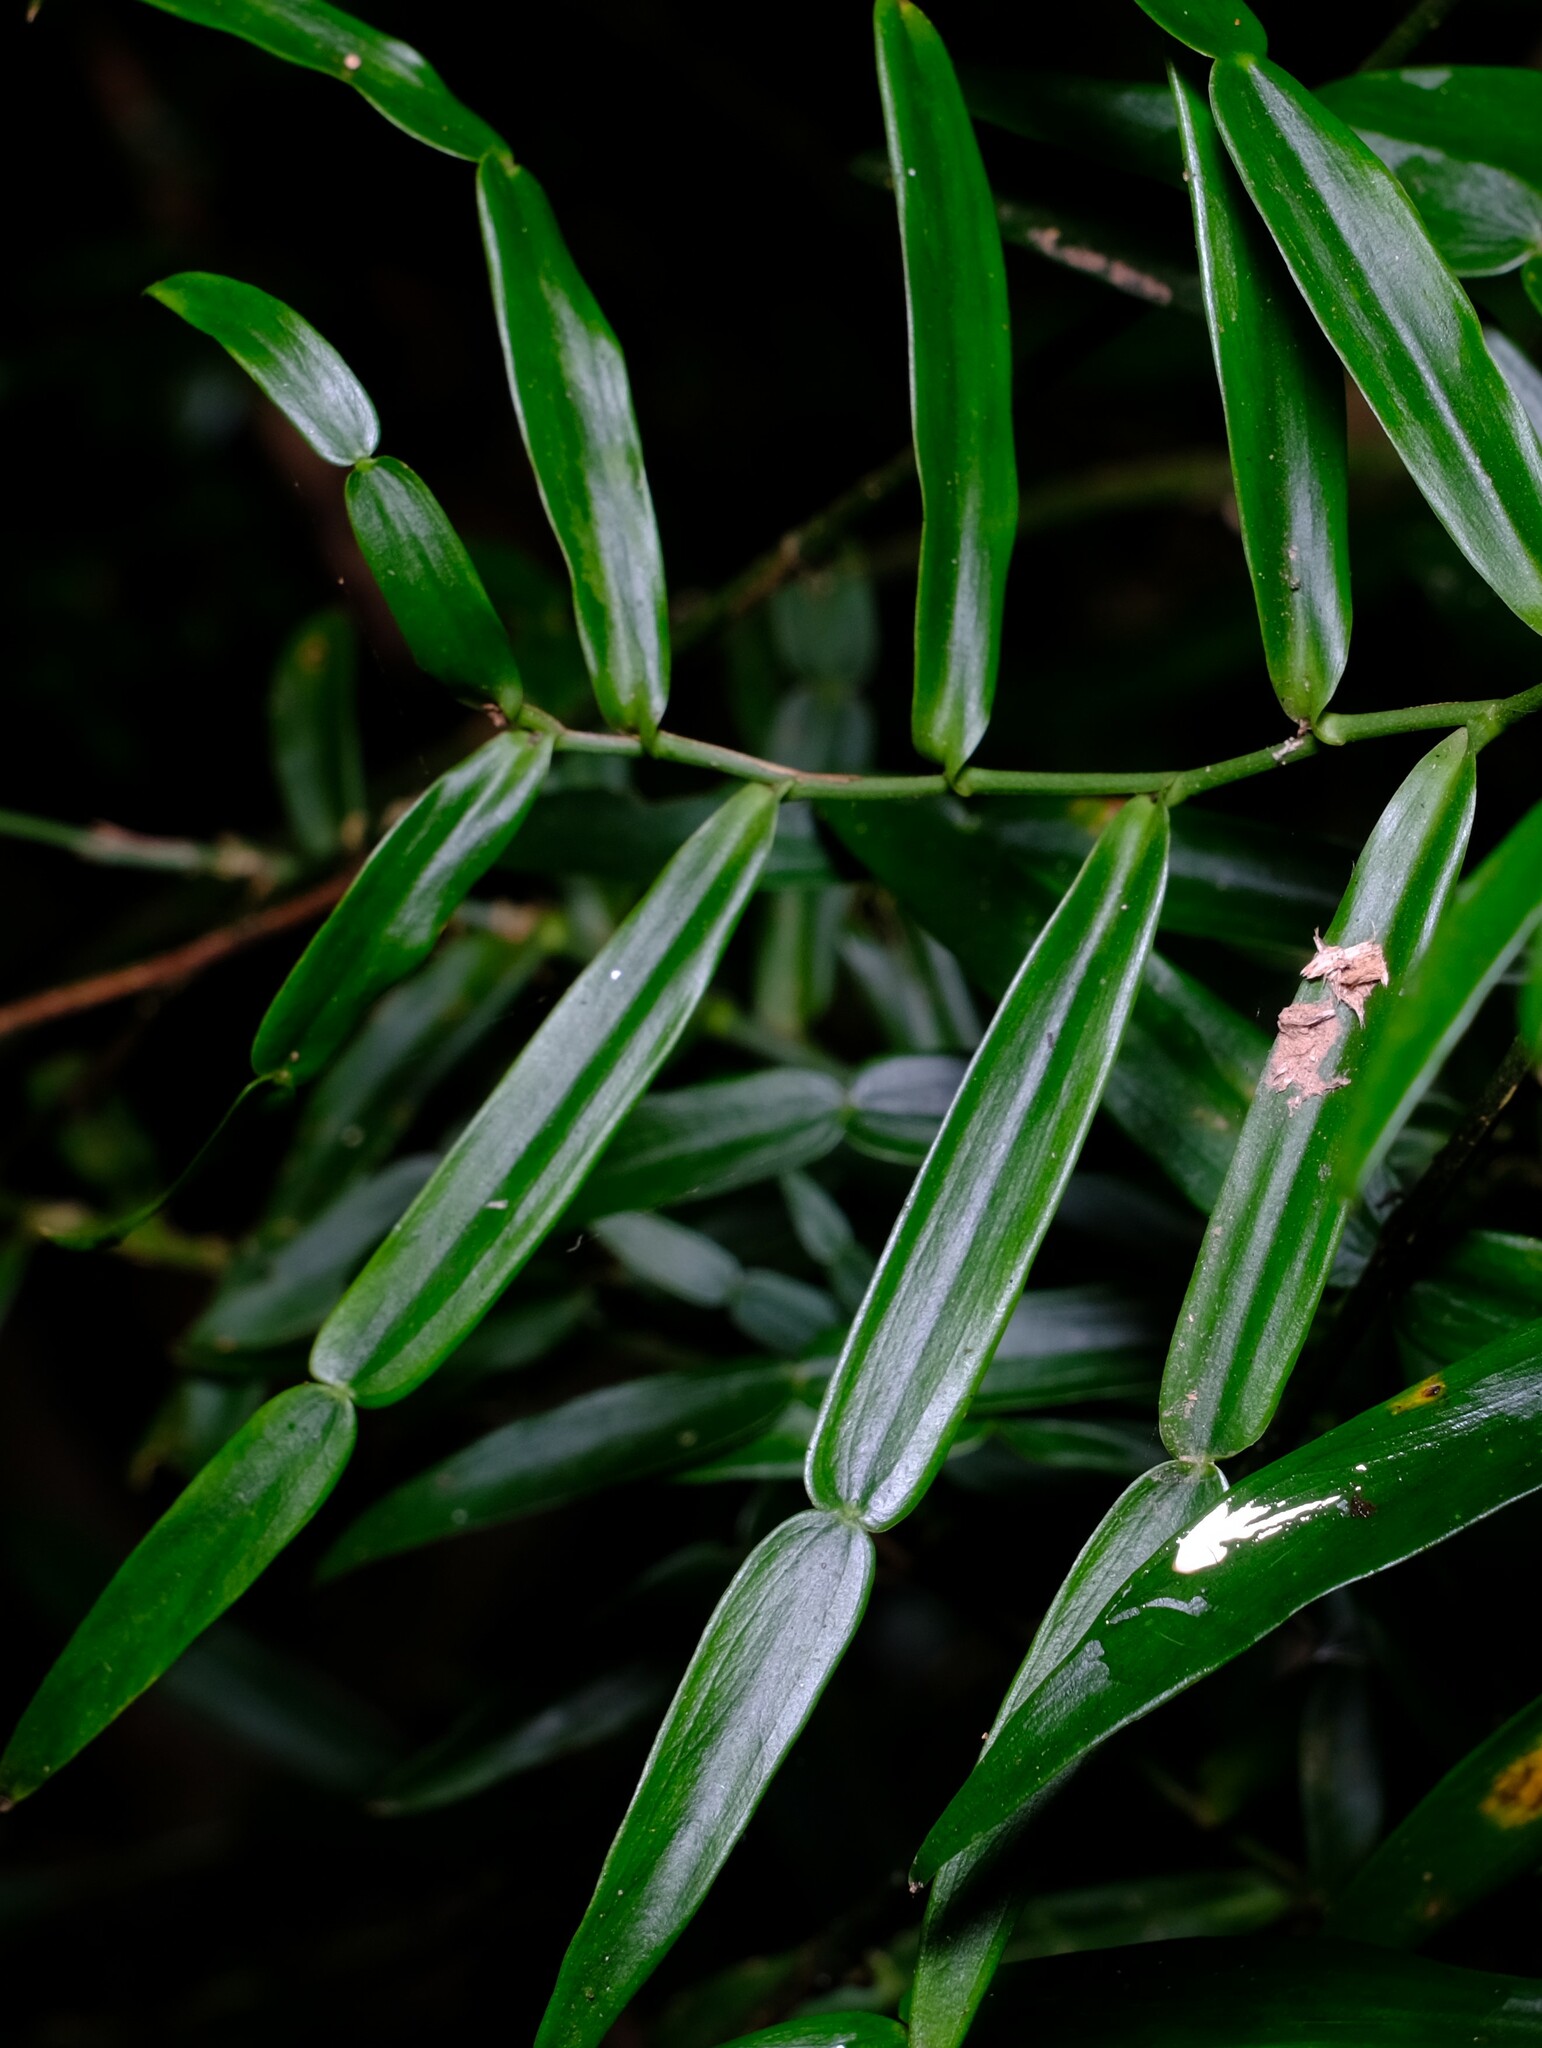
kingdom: Plantae
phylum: Tracheophyta
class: Liliopsida
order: Alismatales
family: Araceae
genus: Pothos
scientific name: Pothos longipes
